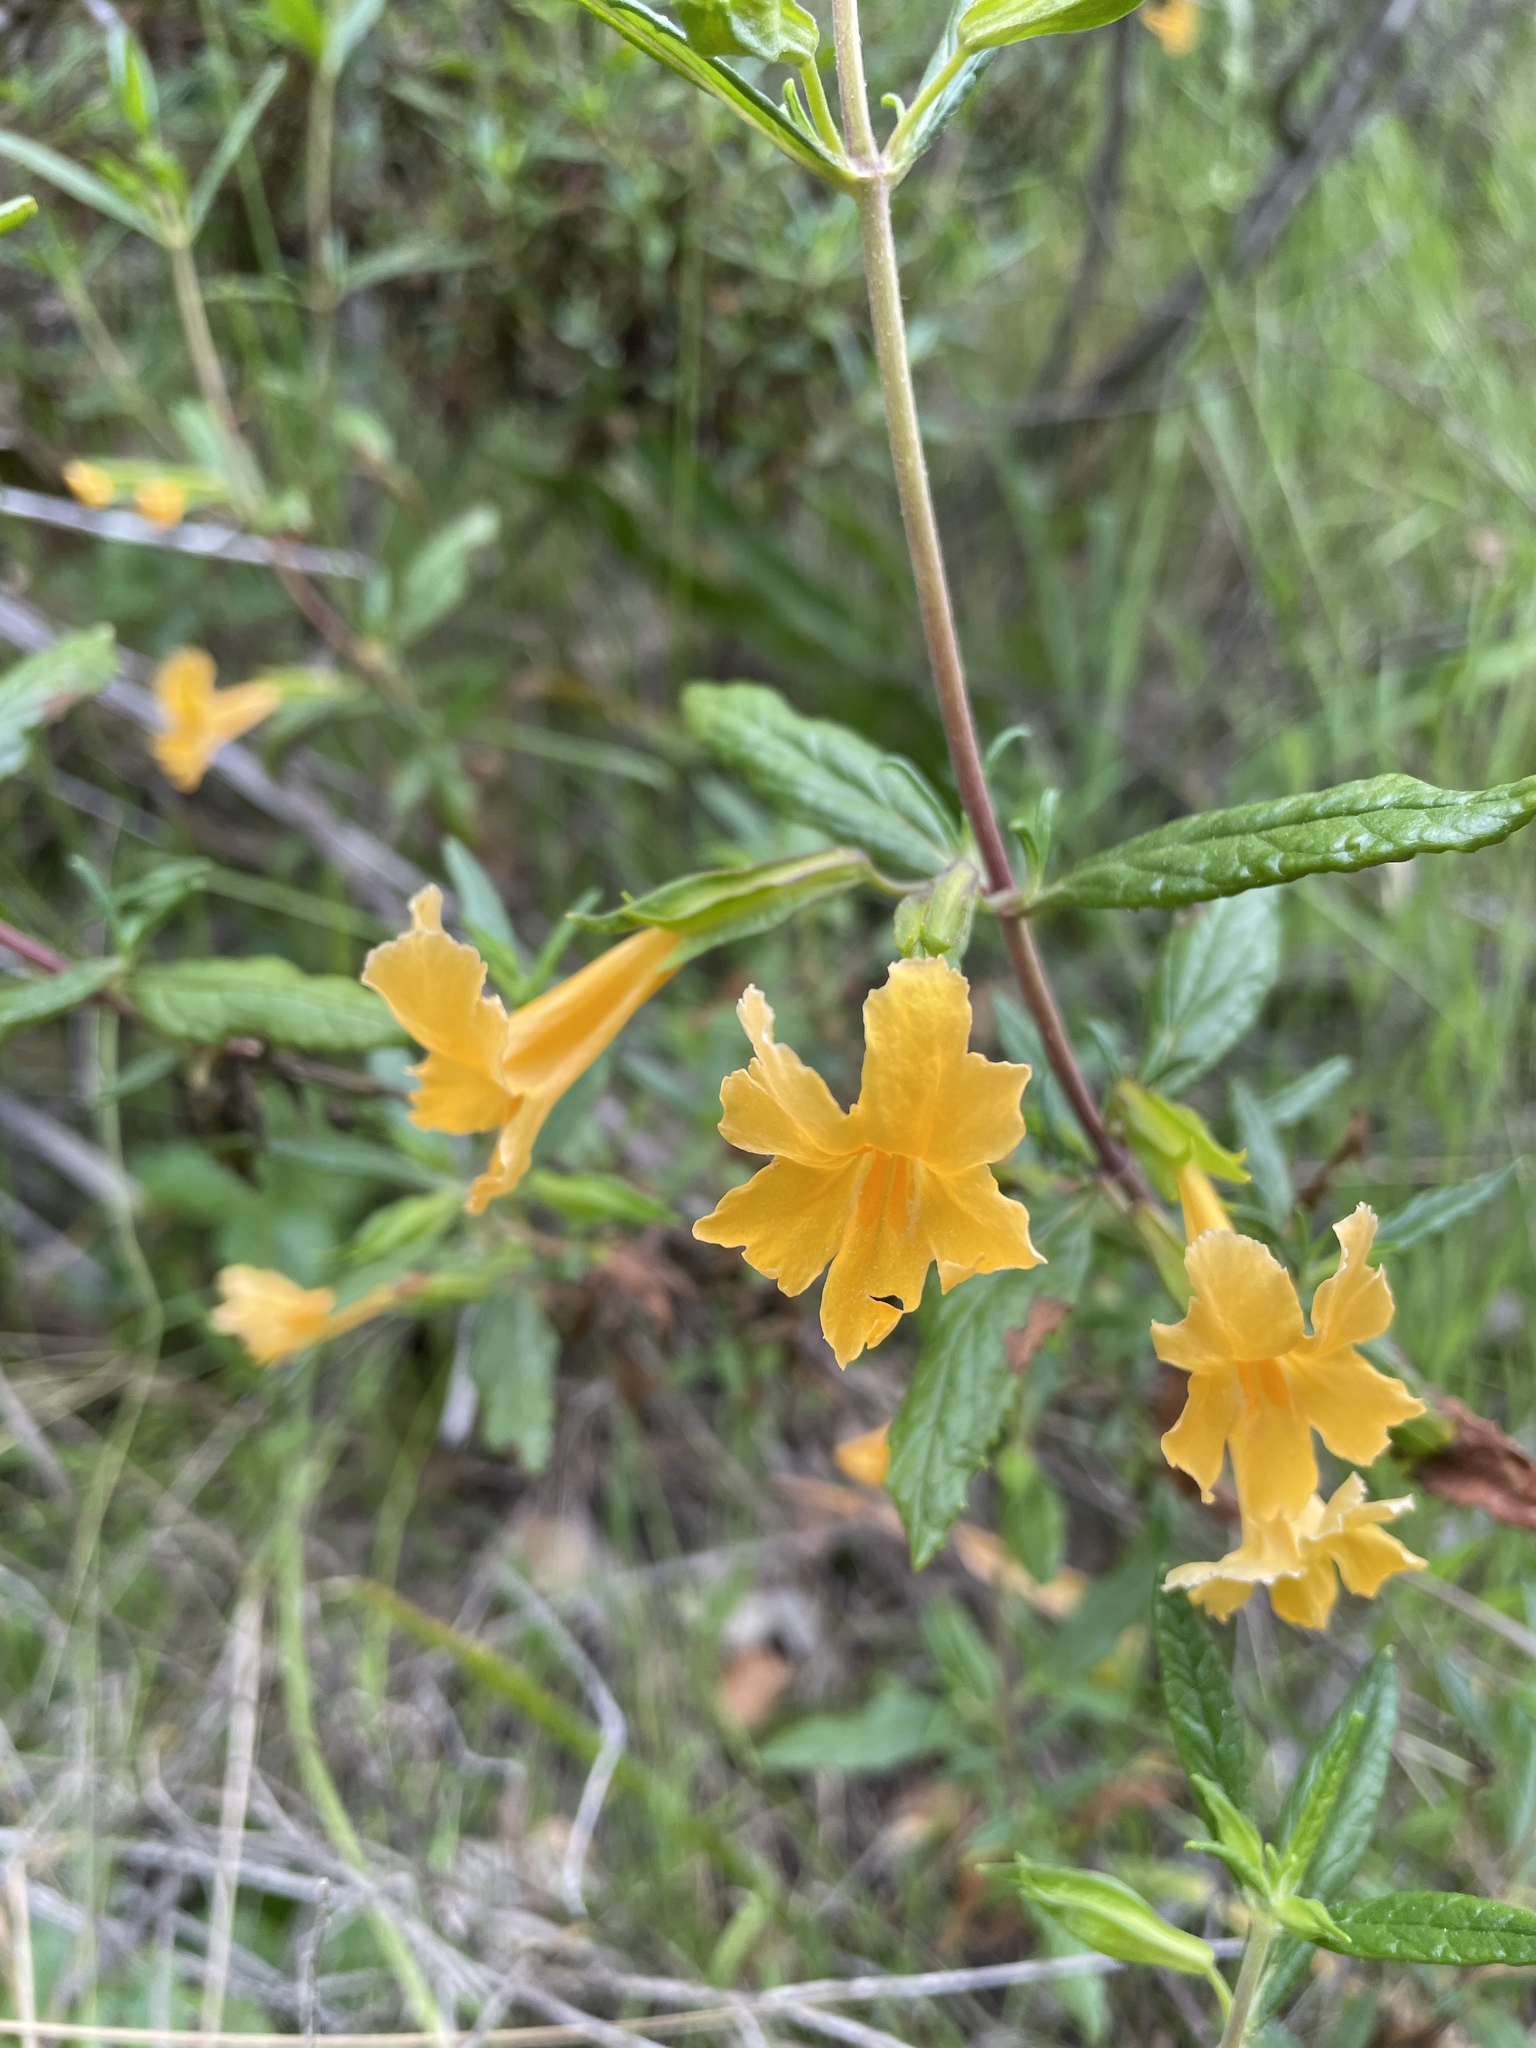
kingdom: Plantae
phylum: Tracheophyta
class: Magnoliopsida
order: Lamiales
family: Phrymaceae
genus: Diplacus
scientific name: Diplacus aurantiacus
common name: Bush monkey-flower
